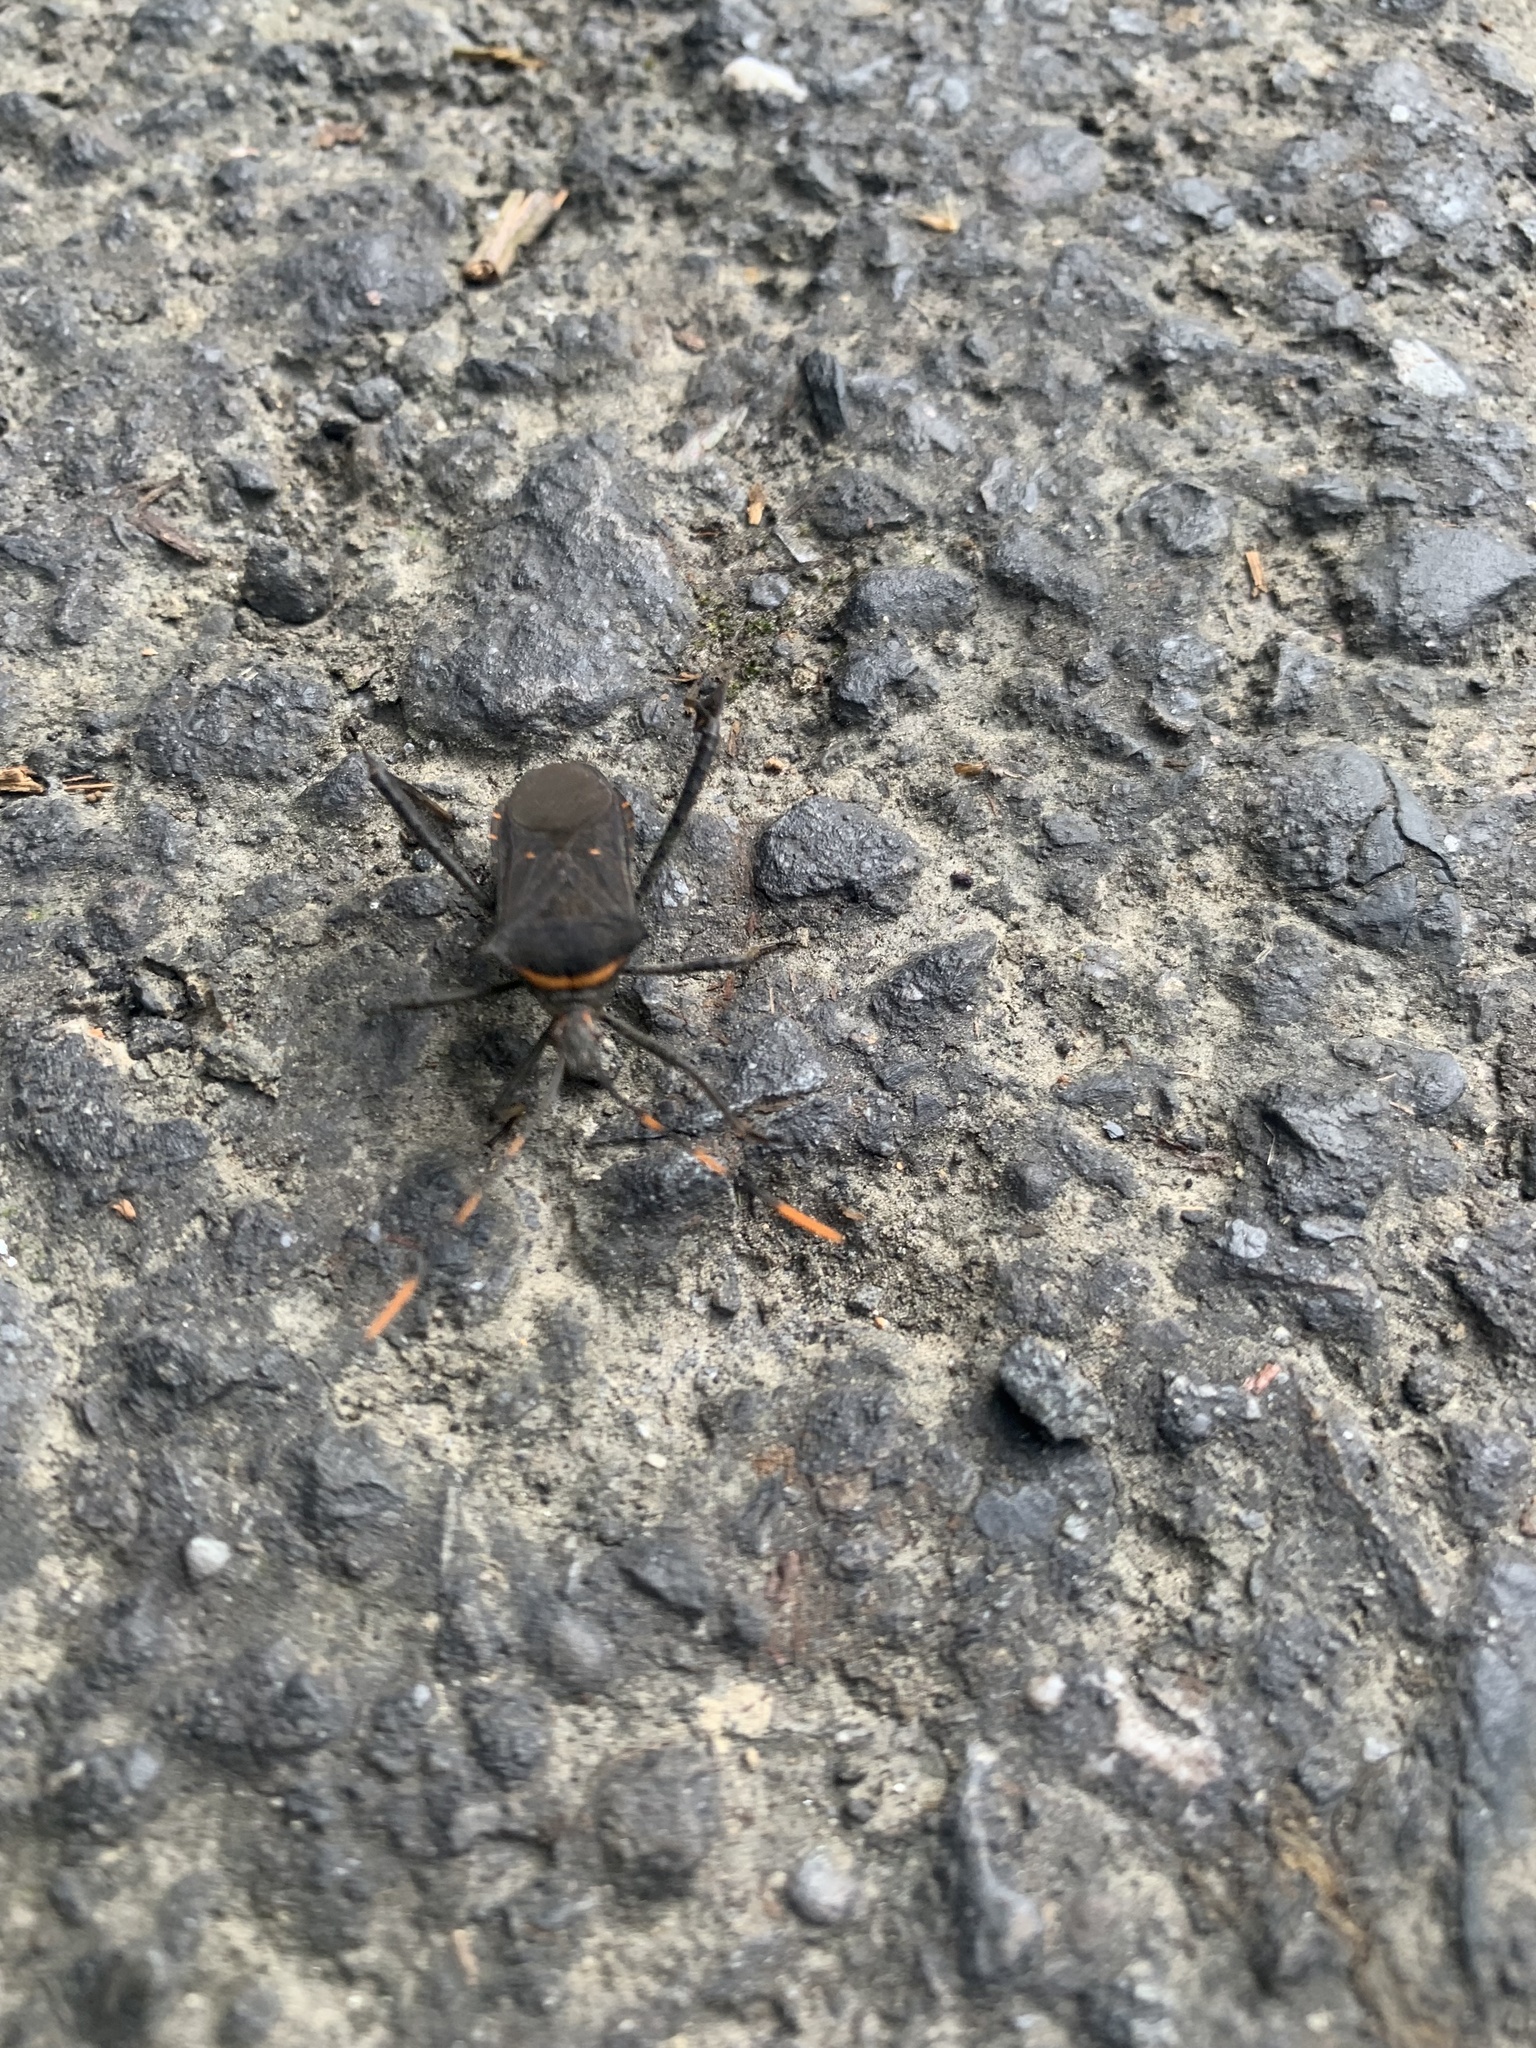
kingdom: Animalia
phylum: Arthropoda
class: Insecta
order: Hemiptera
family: Coreidae
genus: Leptoglossus
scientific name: Leptoglossus gonagra
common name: Citron bug
